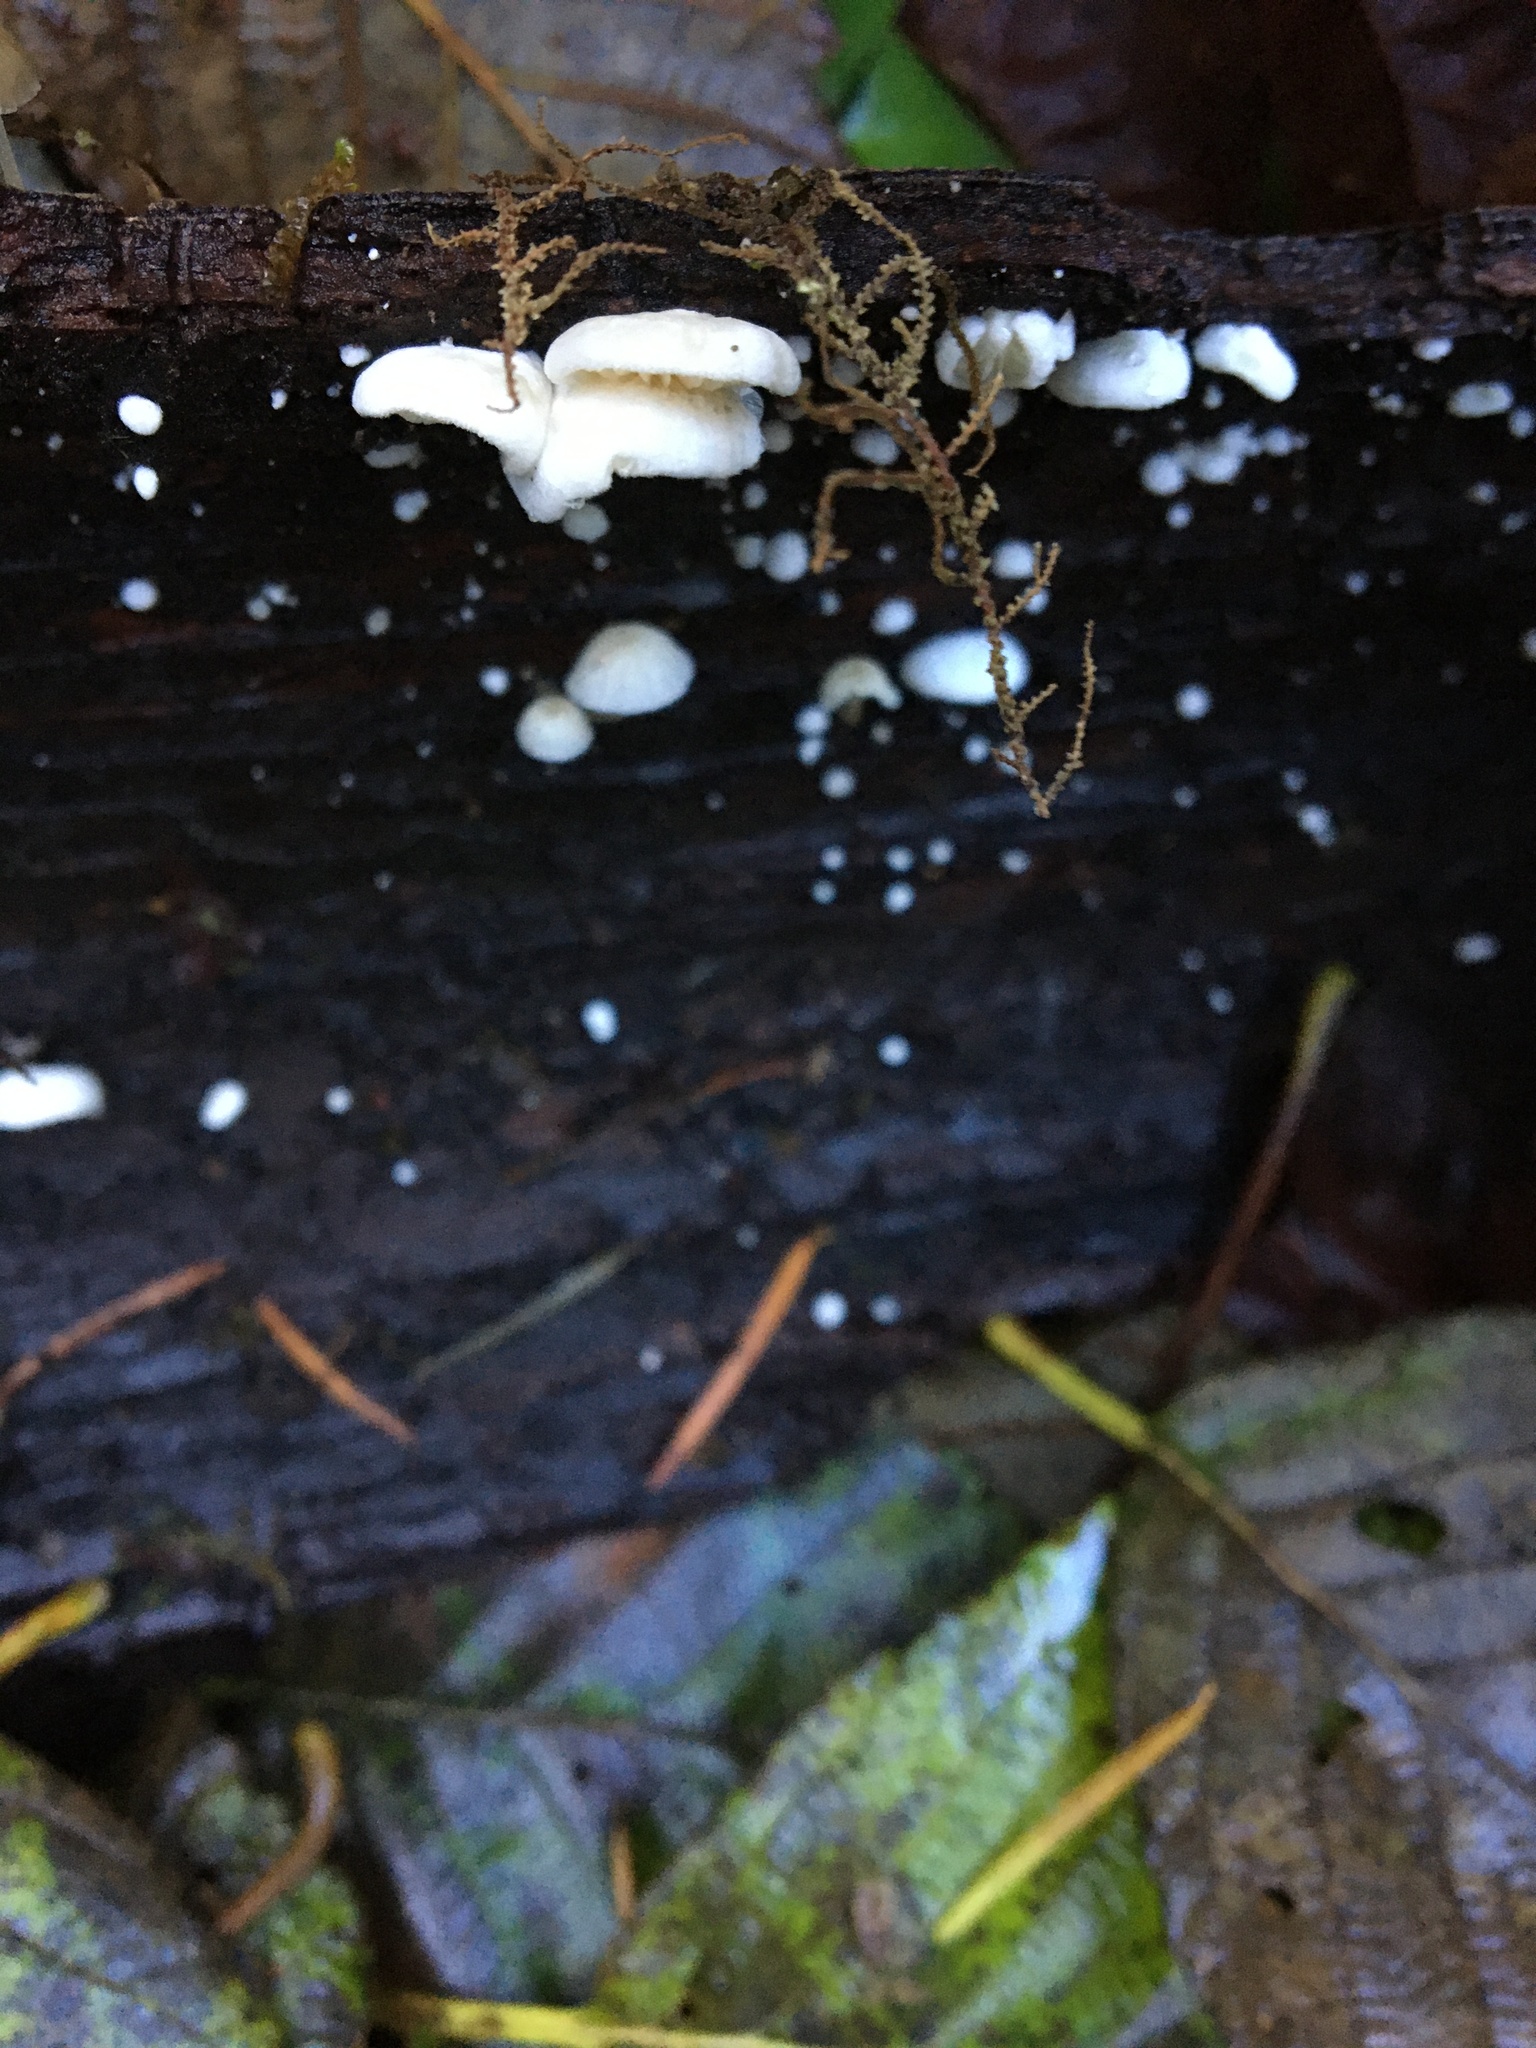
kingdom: Fungi
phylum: Basidiomycota
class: Agaricomycetes
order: Agaricales
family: Omphalotaceae
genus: Marasmiellus
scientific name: Marasmiellus candidus
